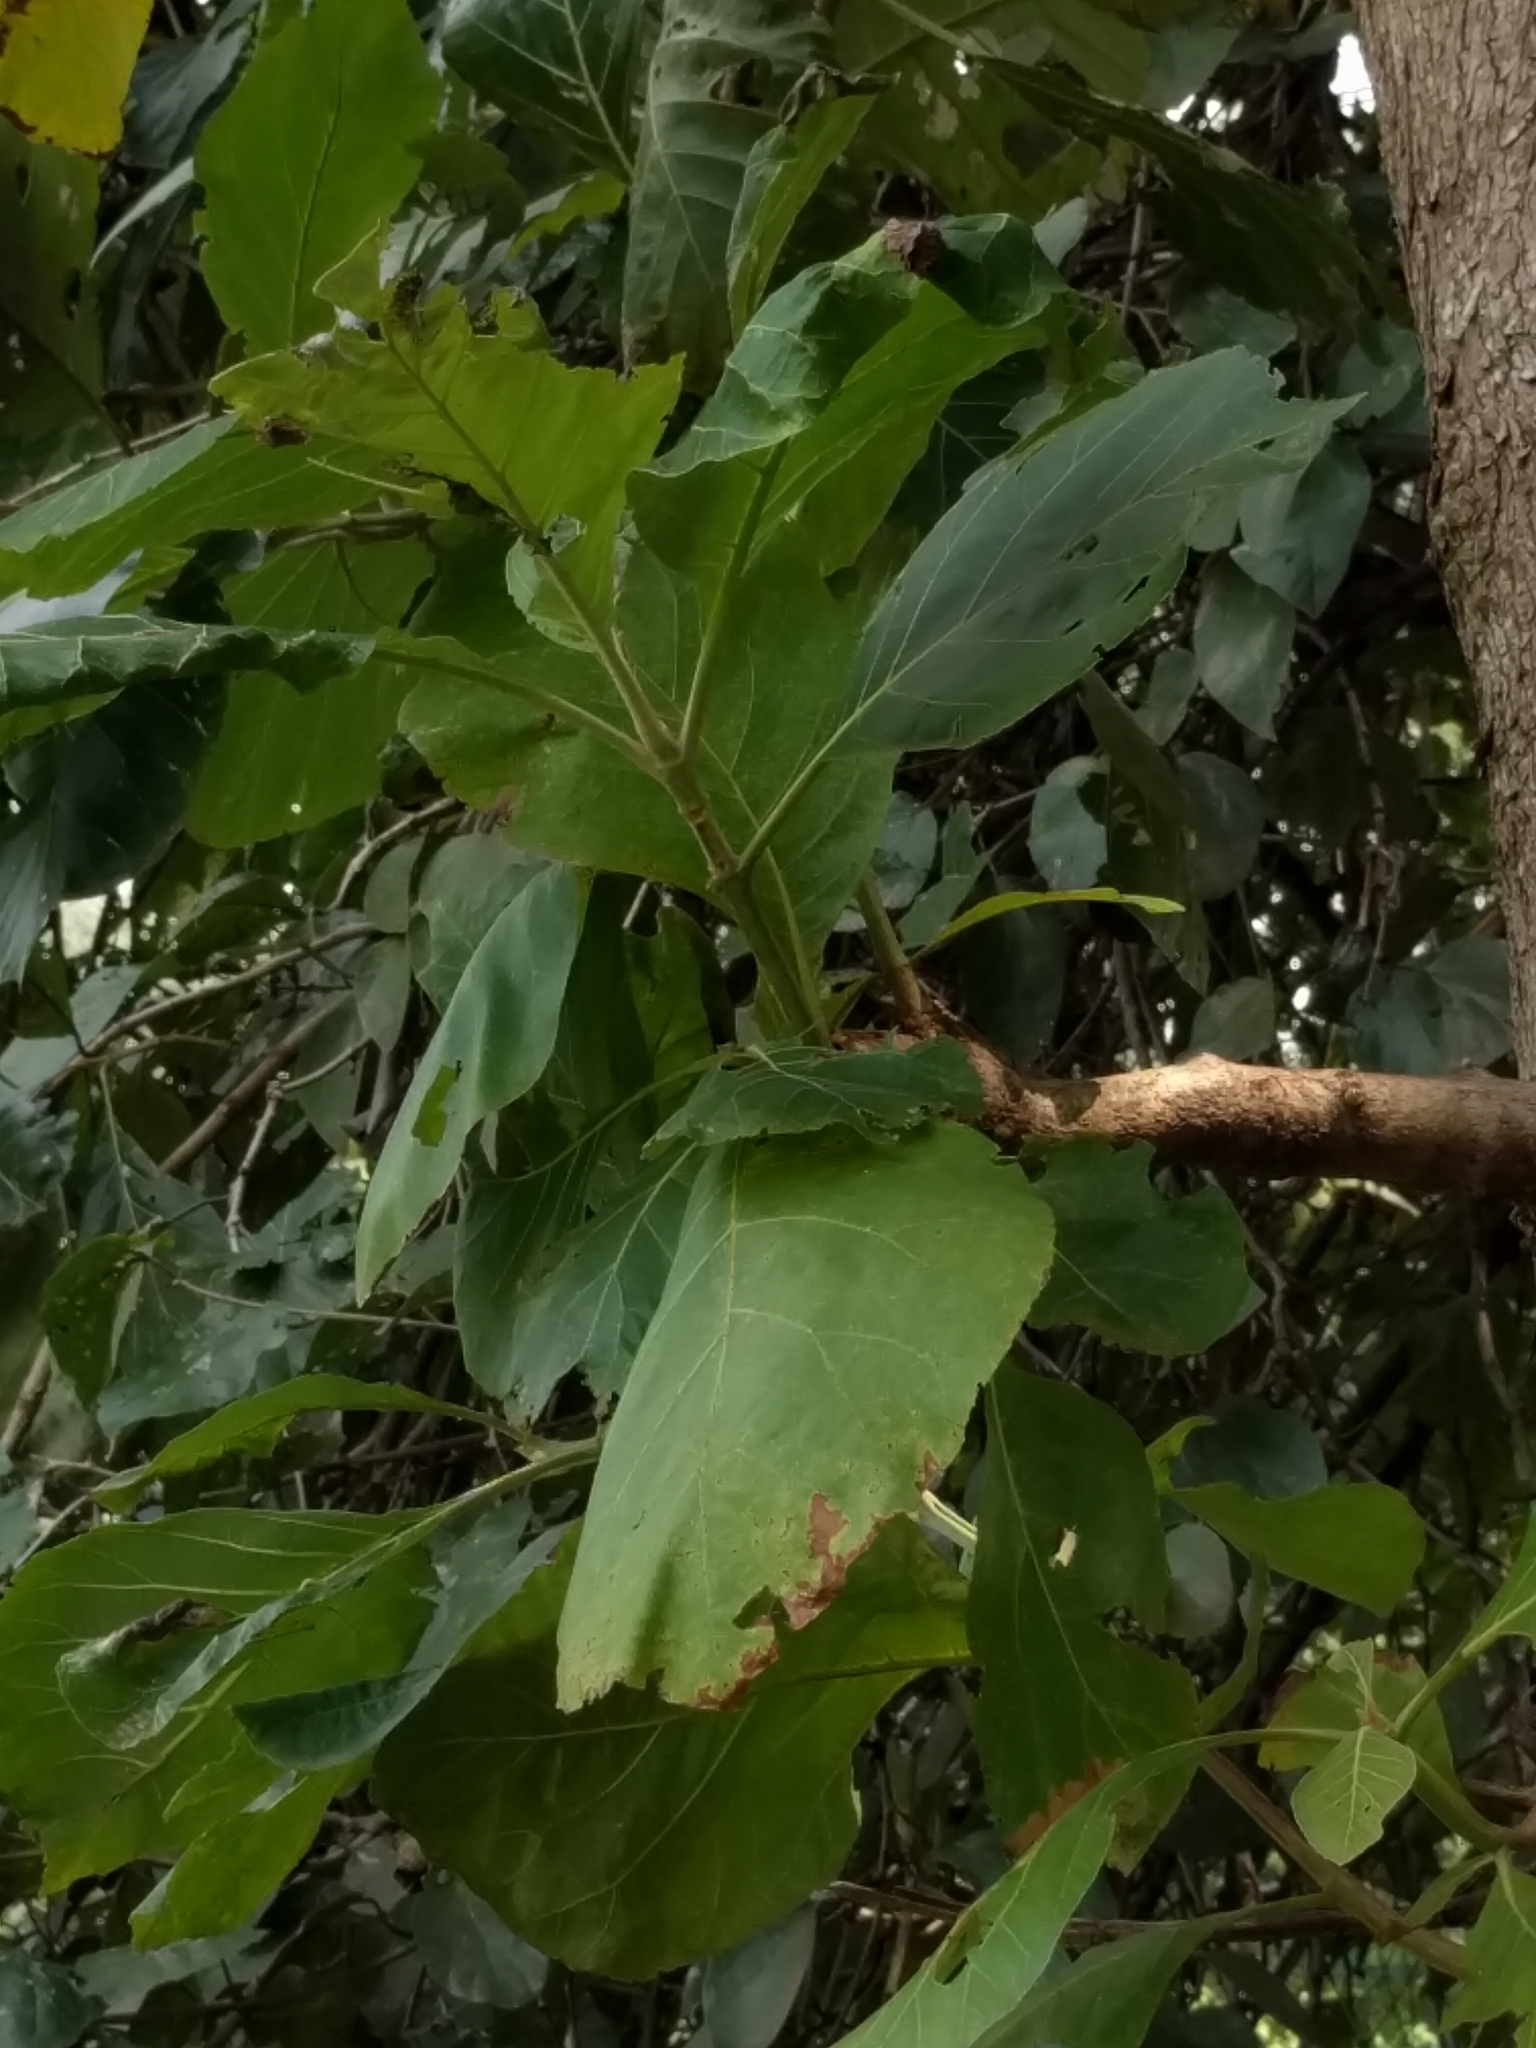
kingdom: Plantae
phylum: Tracheophyta
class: Magnoliopsida
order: Lamiales
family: Lamiaceae
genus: Tectona
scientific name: Tectona grandis
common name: Teak
